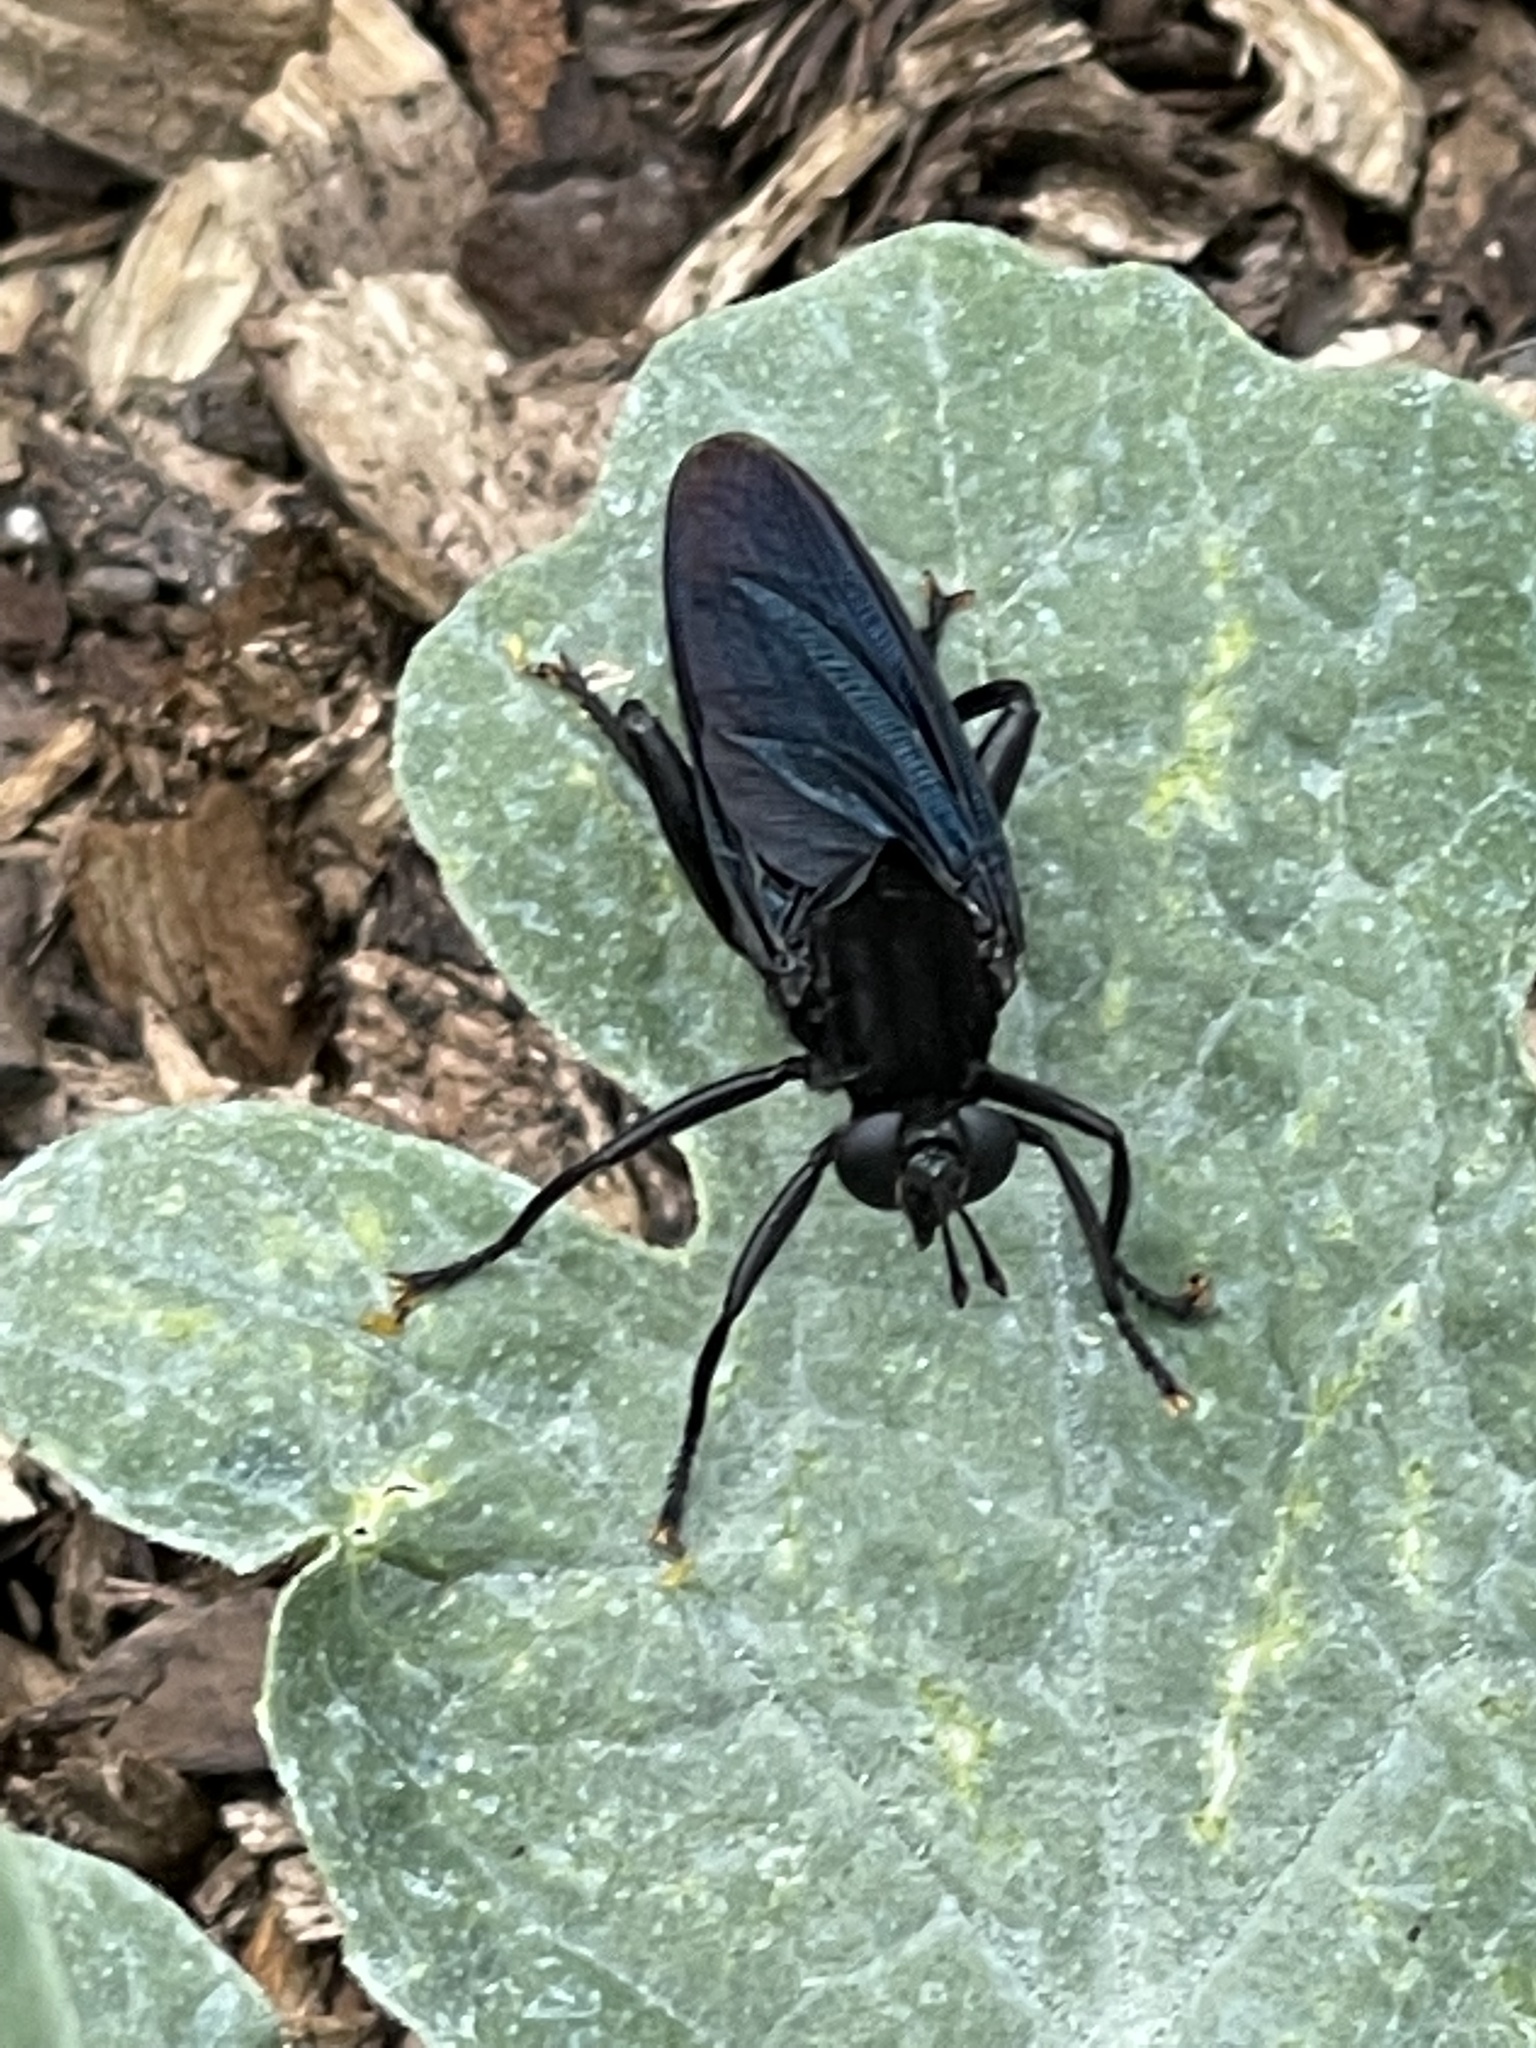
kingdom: Animalia
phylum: Arthropoda
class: Insecta
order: Diptera
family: Mydidae
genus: Mydas
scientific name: Mydas clavatus
